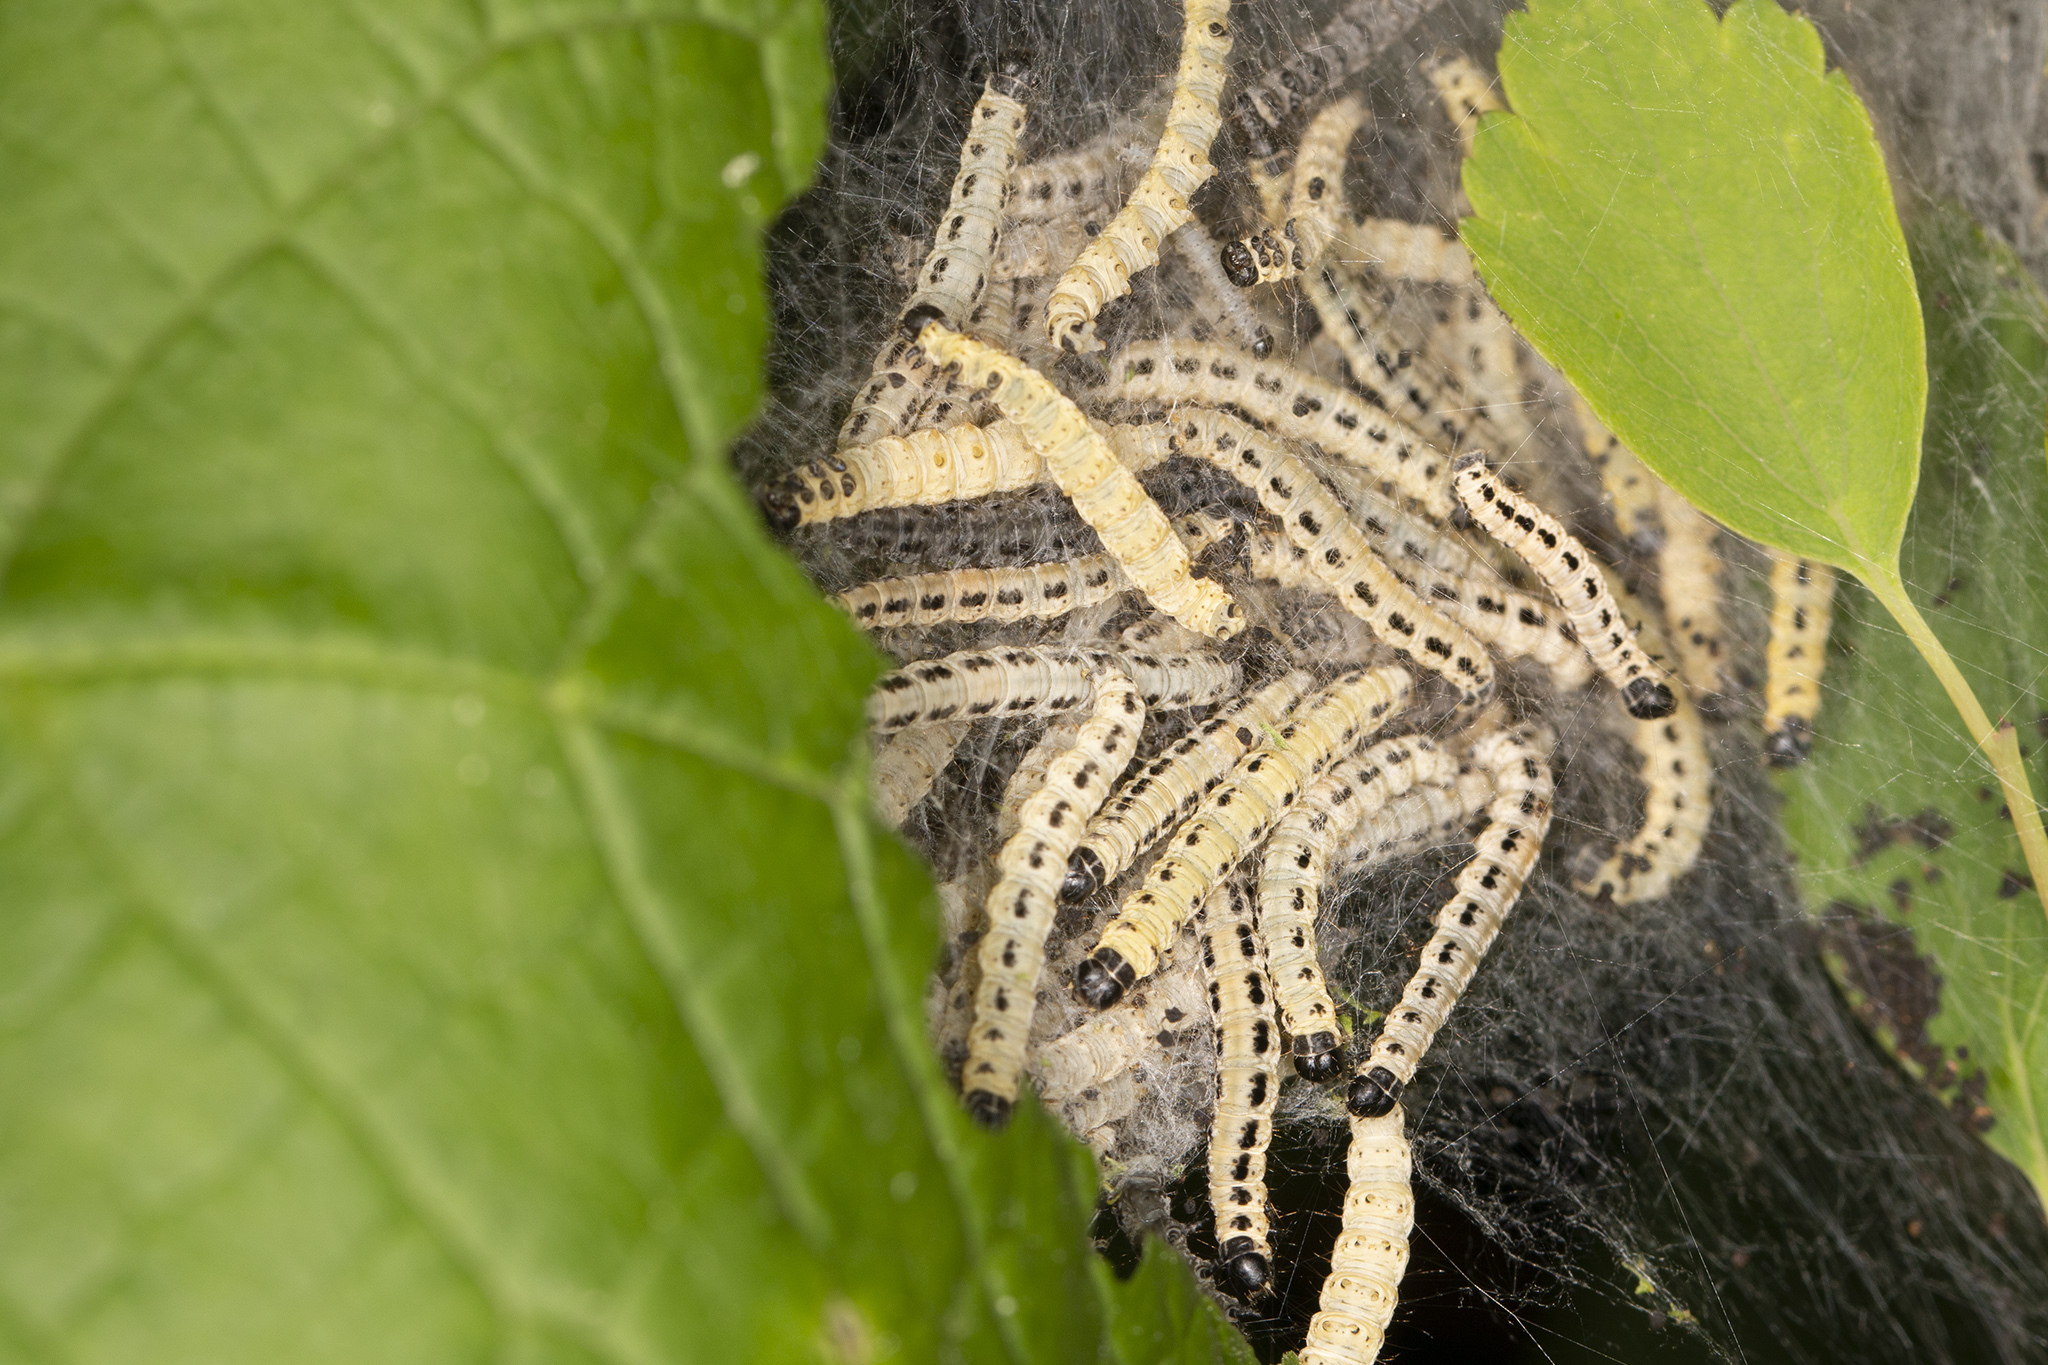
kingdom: Animalia
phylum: Arthropoda
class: Insecta
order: Lepidoptera
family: Yponomeutidae
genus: Yponomeuta
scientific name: Yponomeuta evonymella
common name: Bird-cherry ermine
